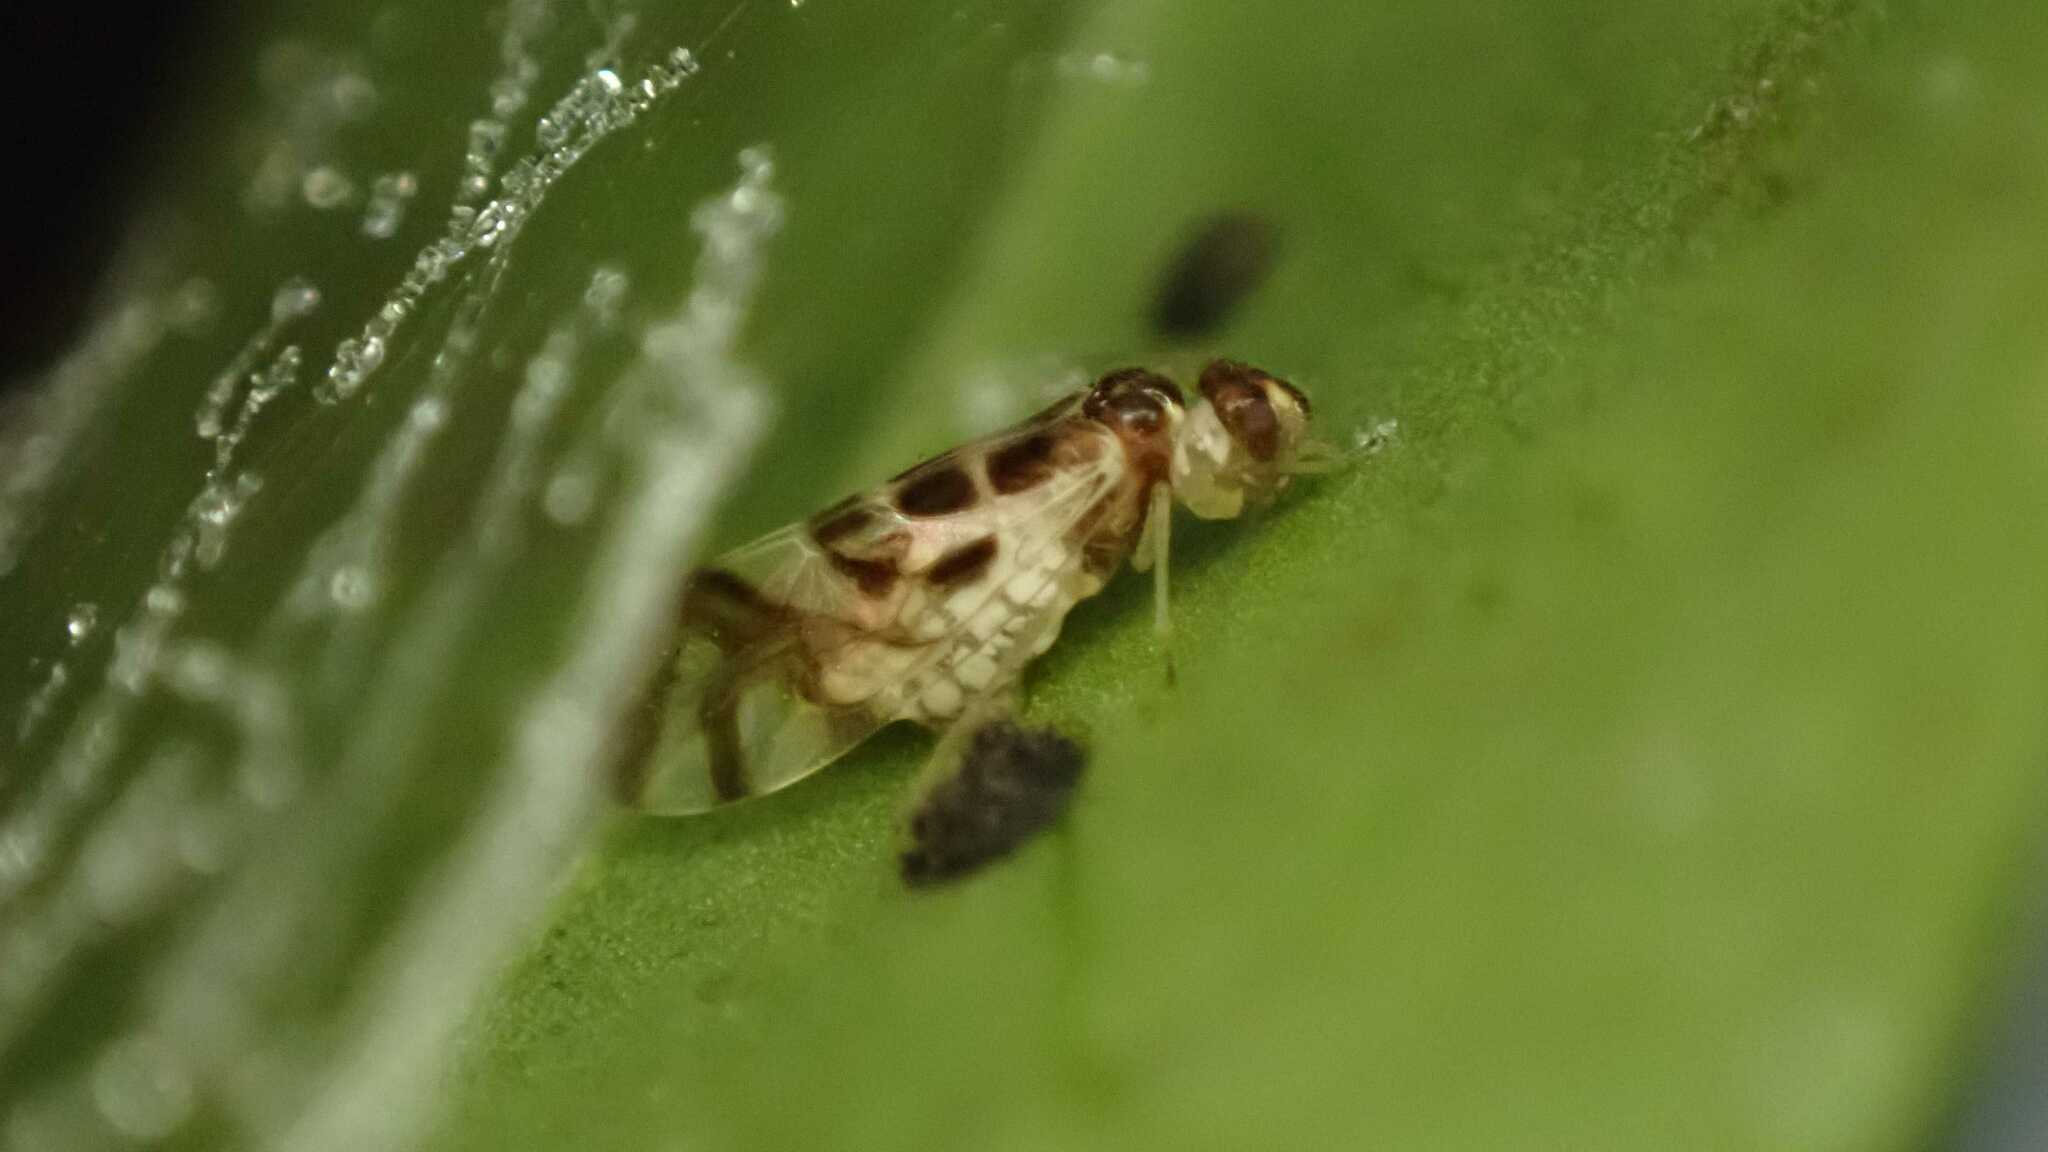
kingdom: Animalia
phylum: Arthropoda
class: Insecta
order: Psocodea
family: Stenopsocidae
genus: Graphopsocus
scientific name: Graphopsocus cruciatus
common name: Lizard bark louse
